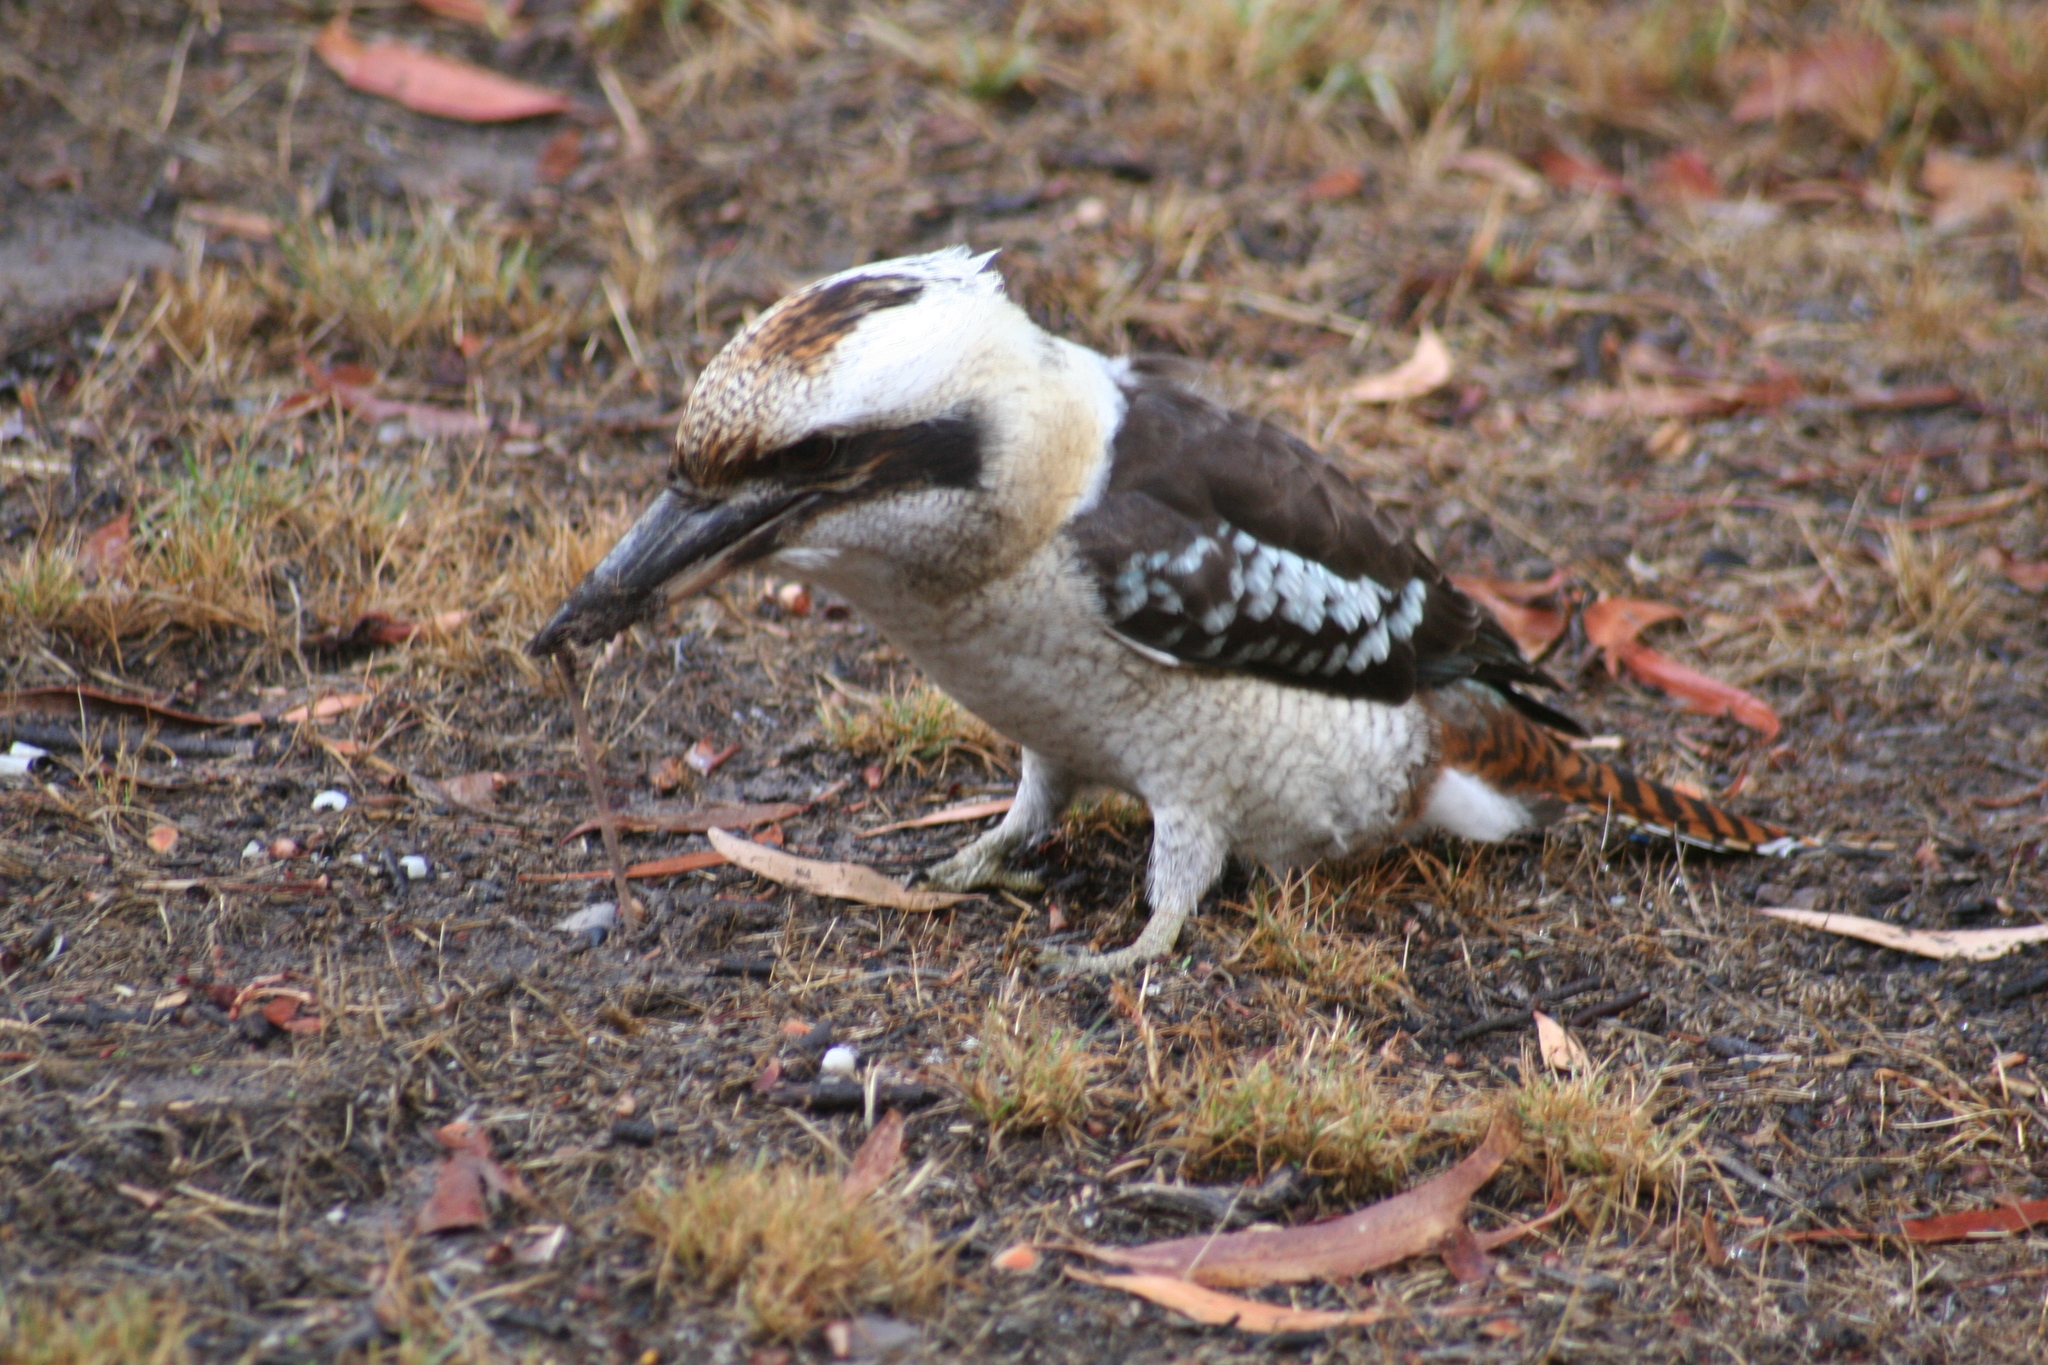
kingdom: Animalia
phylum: Chordata
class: Aves
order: Coraciiformes
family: Alcedinidae
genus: Dacelo
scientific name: Dacelo novaeguineae
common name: Laughing kookaburra
